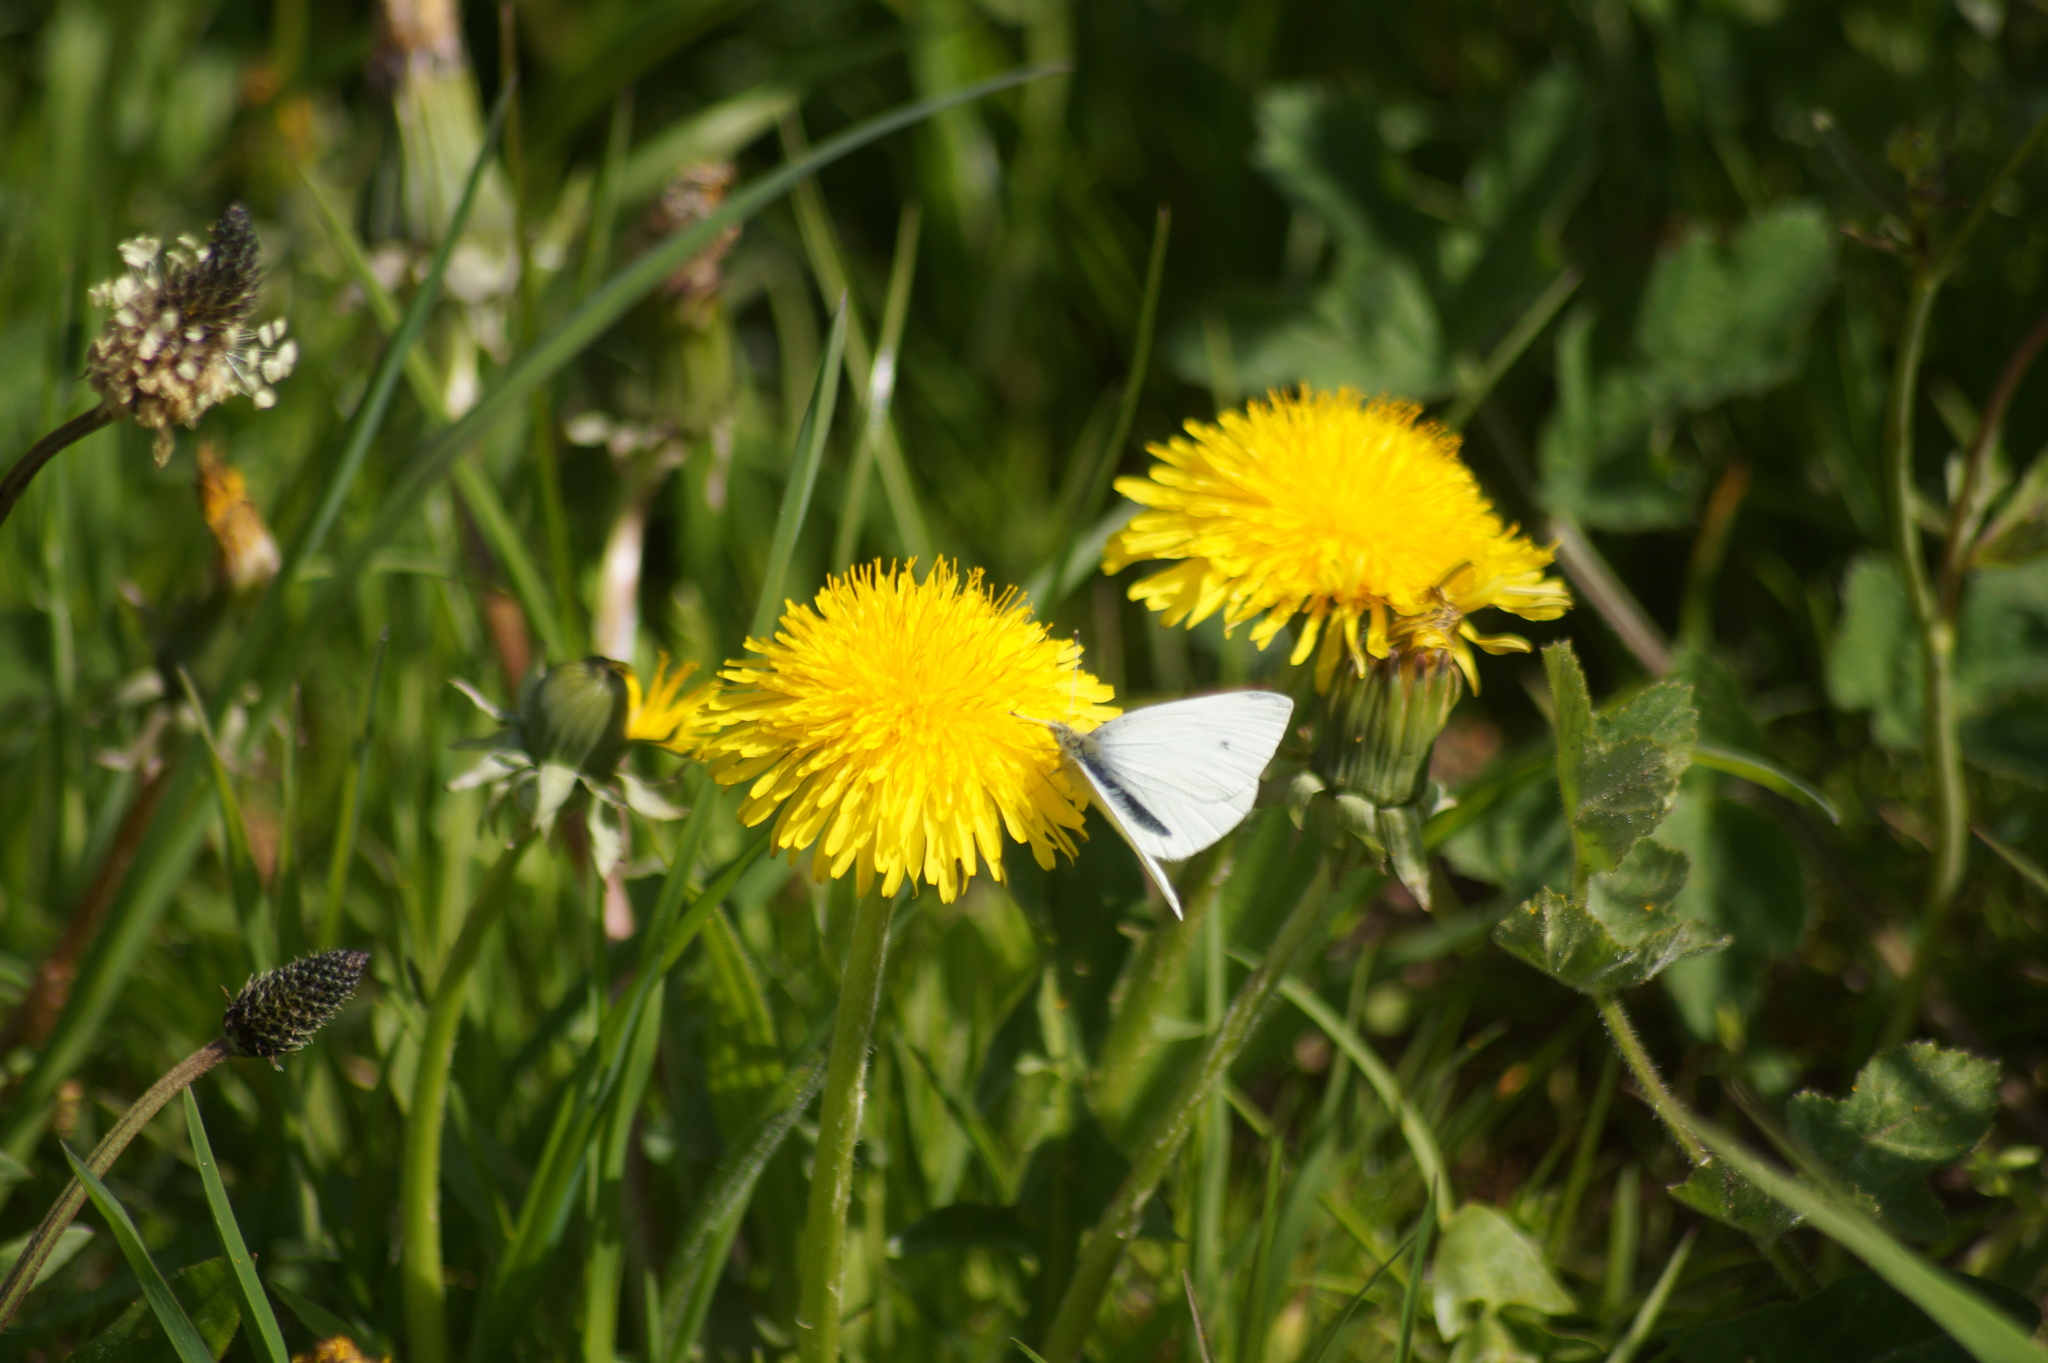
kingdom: Animalia
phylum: Arthropoda
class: Insecta
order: Lepidoptera
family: Pieridae
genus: Pieris
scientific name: Pieris rapae
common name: Small white
